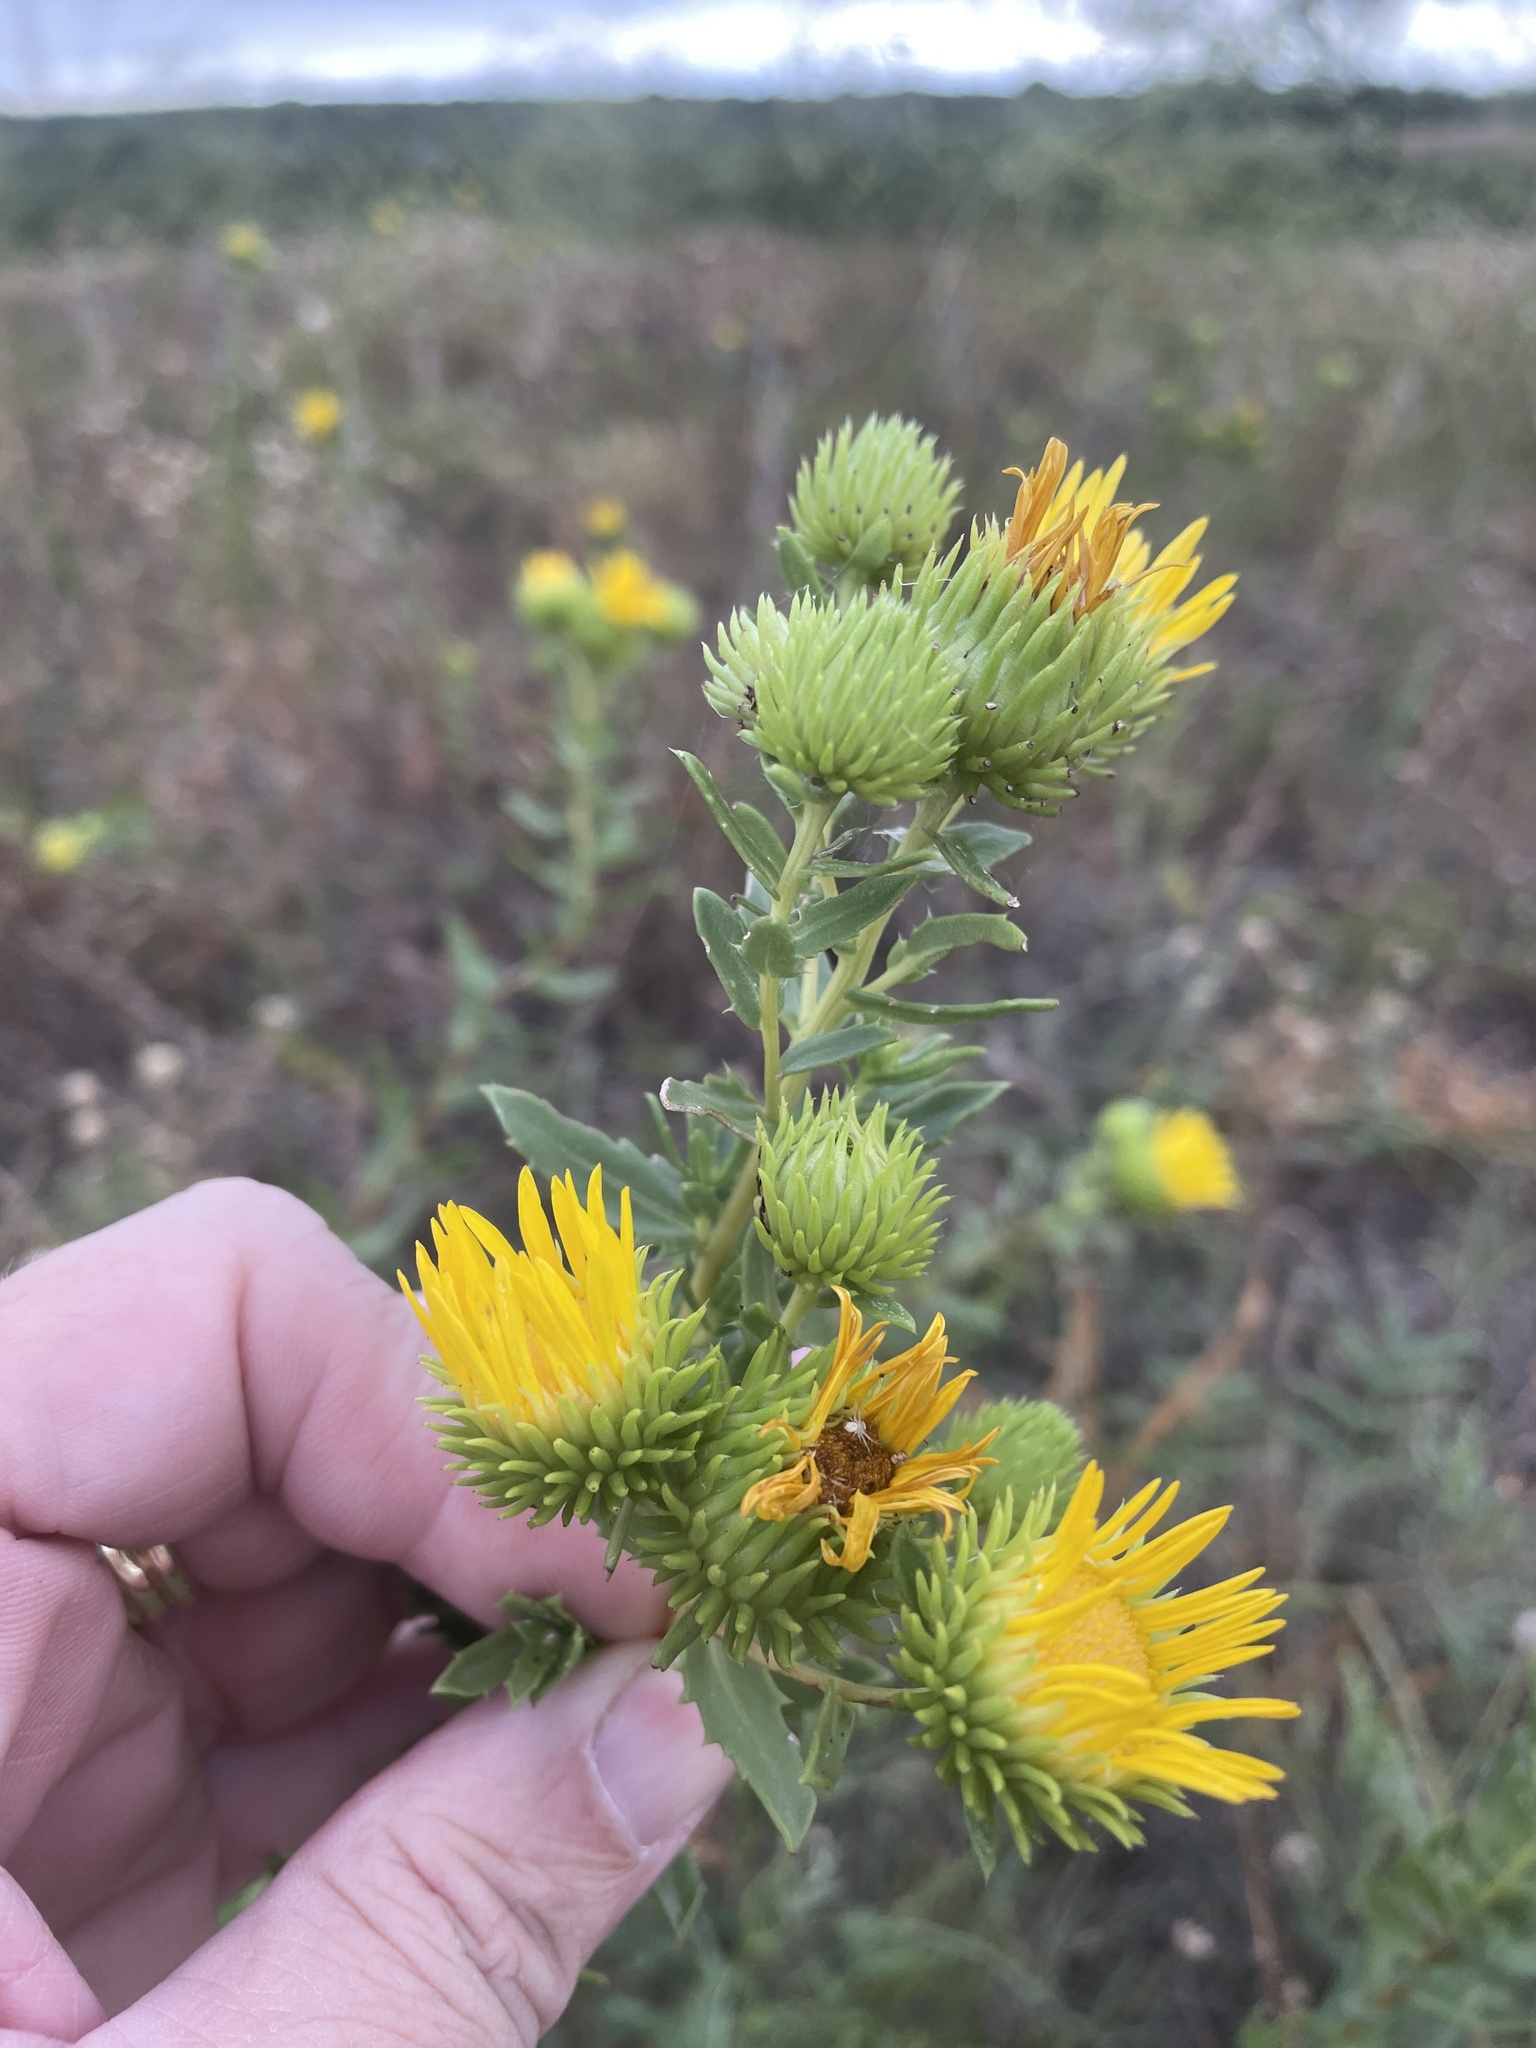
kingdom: Plantae
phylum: Tracheophyta
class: Magnoliopsida
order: Asterales
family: Asteraceae
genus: Grindelia
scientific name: Grindelia lanceolata
